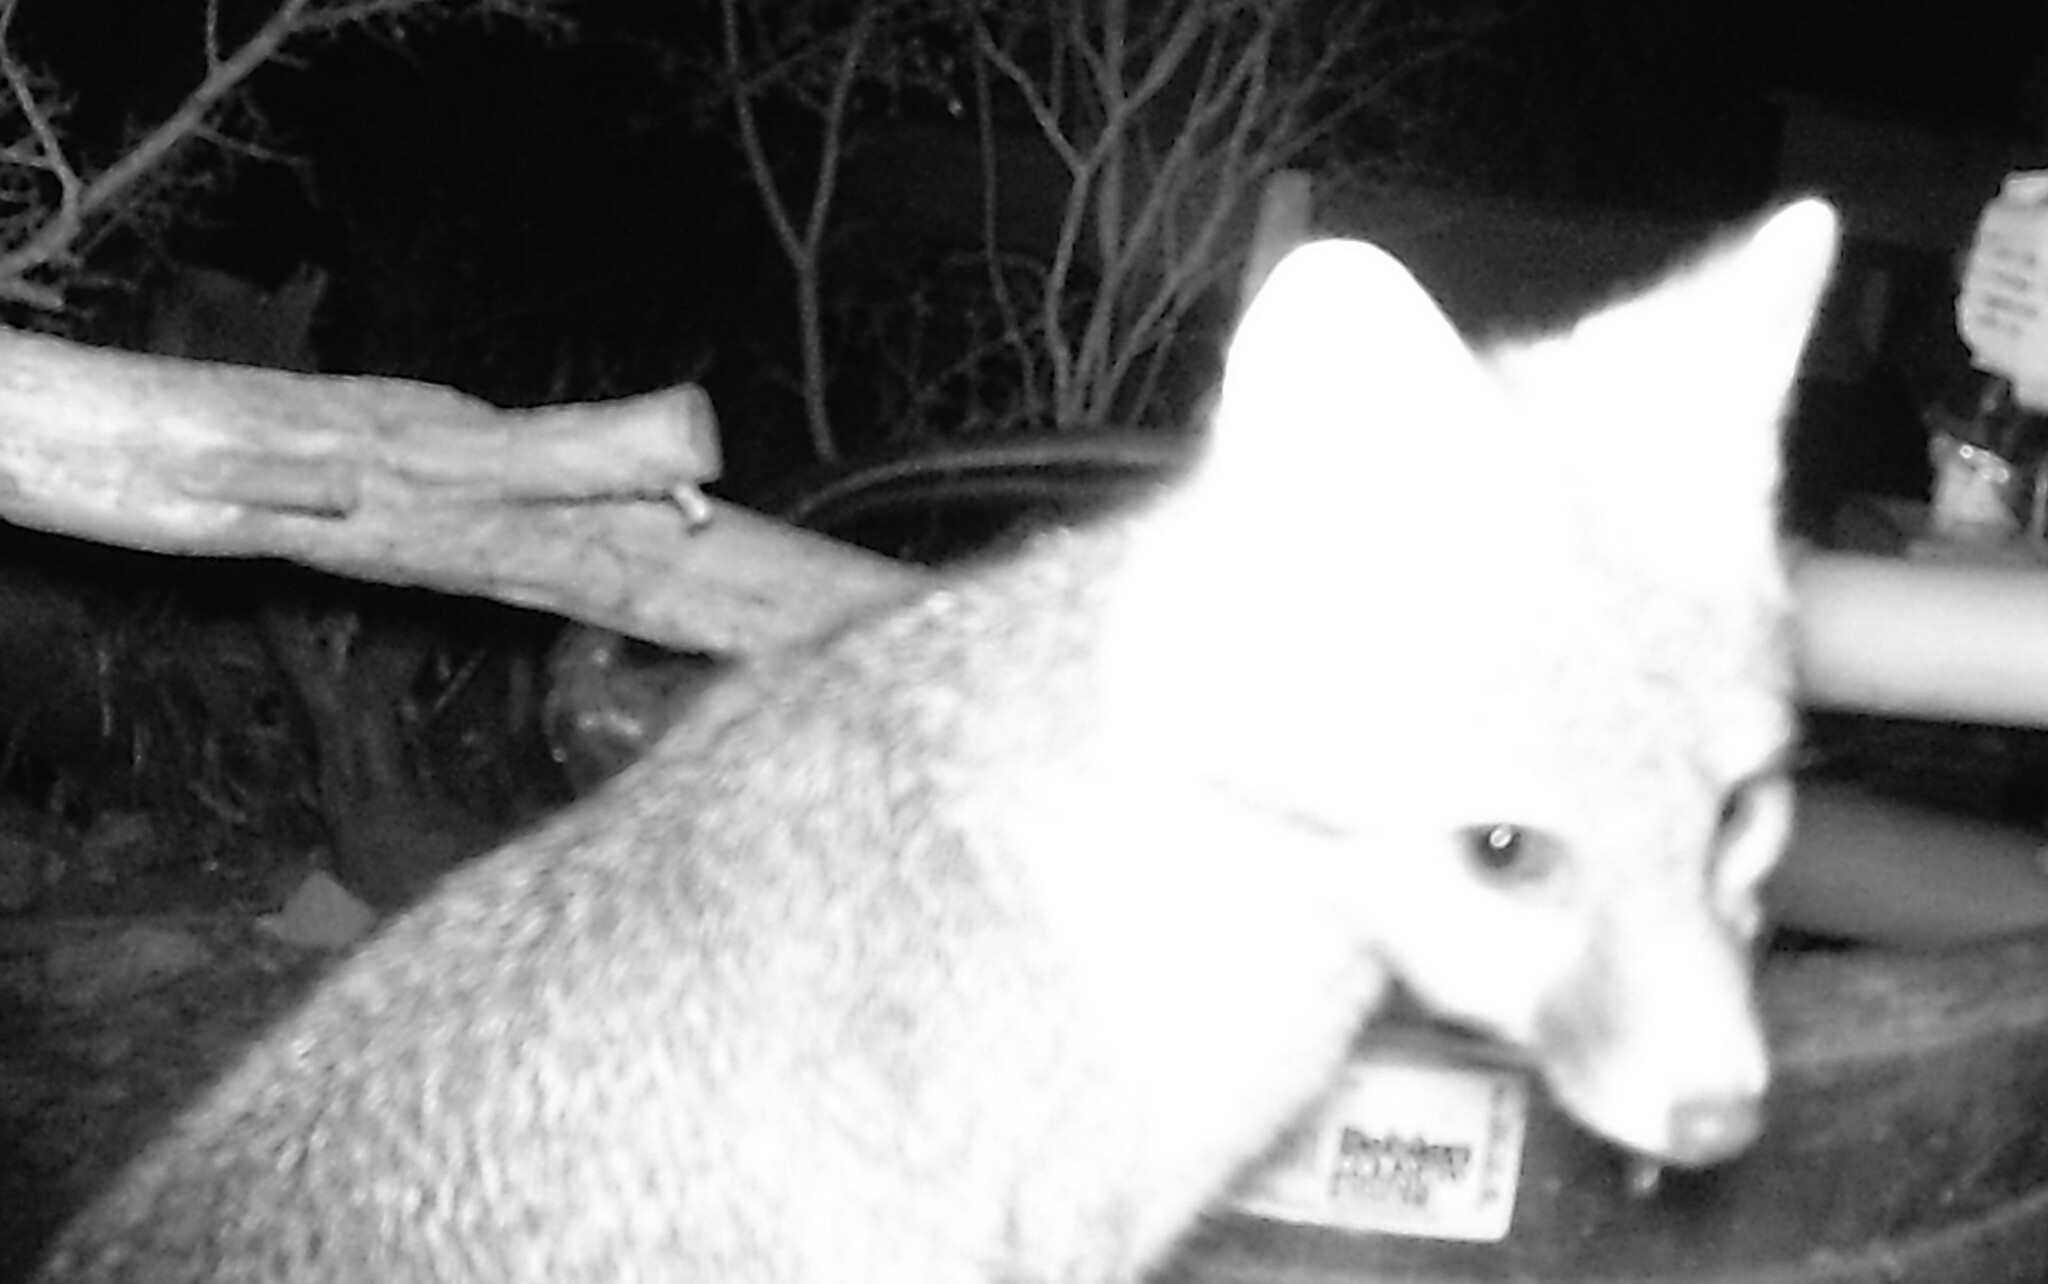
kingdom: Animalia
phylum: Chordata
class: Mammalia
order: Carnivora
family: Canidae
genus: Urocyon
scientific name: Urocyon cinereoargenteus
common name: Gray fox
